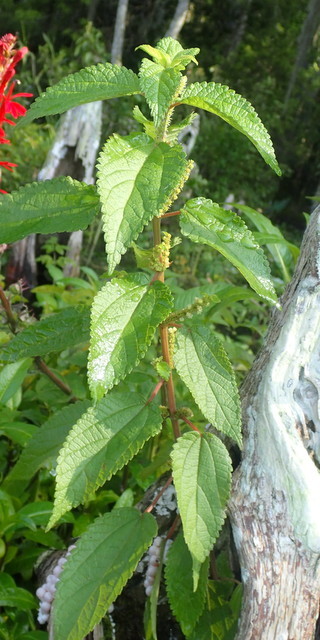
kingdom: Plantae
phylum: Tracheophyta
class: Magnoliopsida
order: Rosales
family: Urticaceae
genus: Boehmeria
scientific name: Boehmeria cylindrica
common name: Bog-hemp
